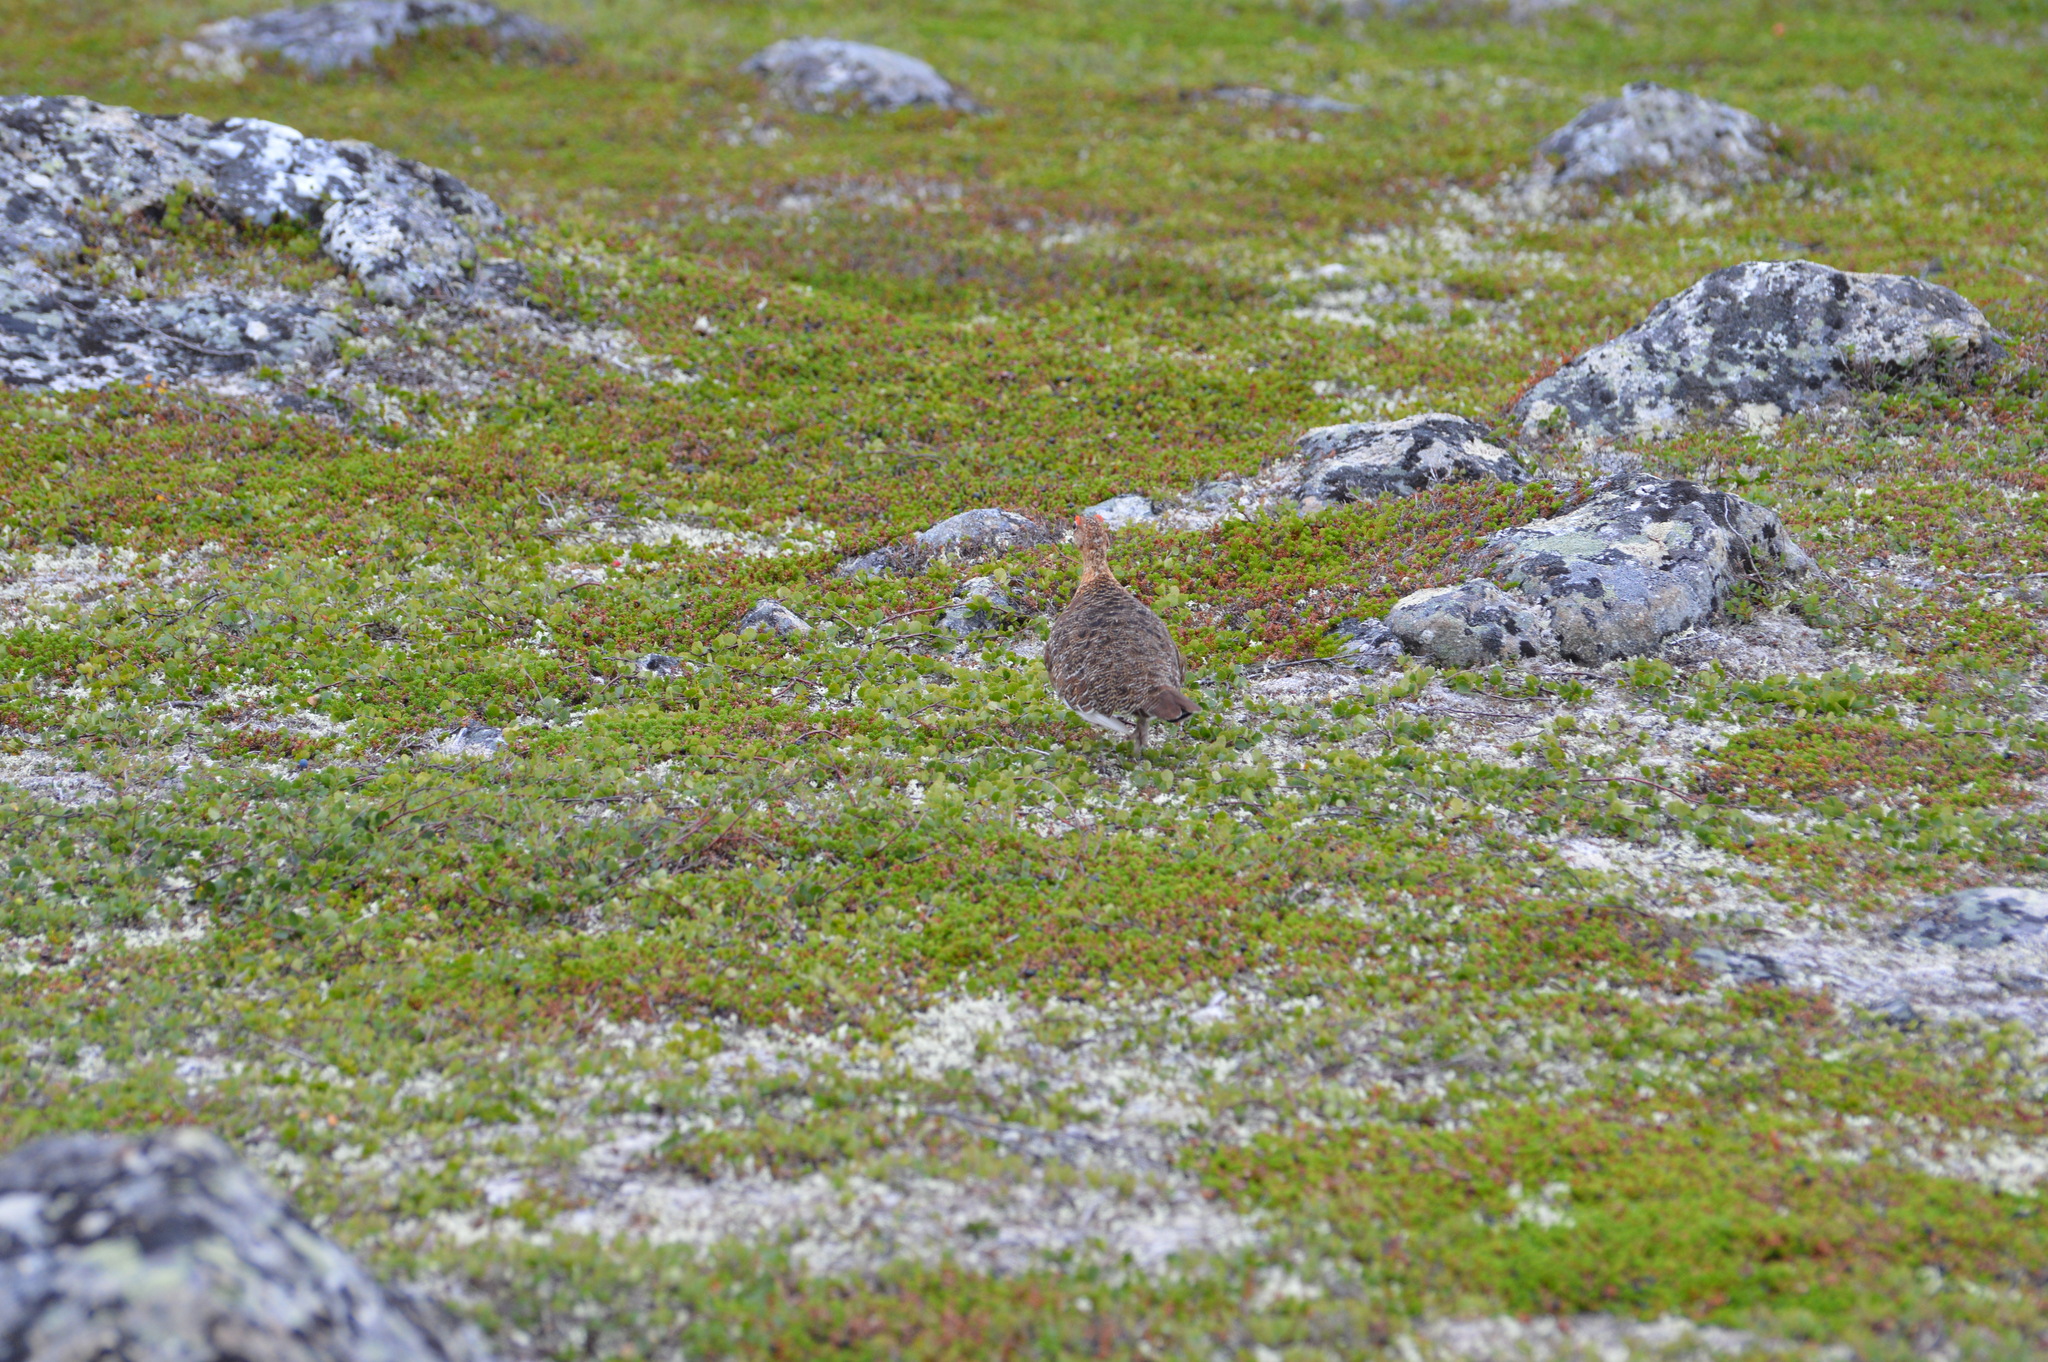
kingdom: Animalia
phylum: Chordata
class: Aves
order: Galliformes
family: Phasianidae
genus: Lagopus
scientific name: Lagopus lagopus
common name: Willow ptarmigan
